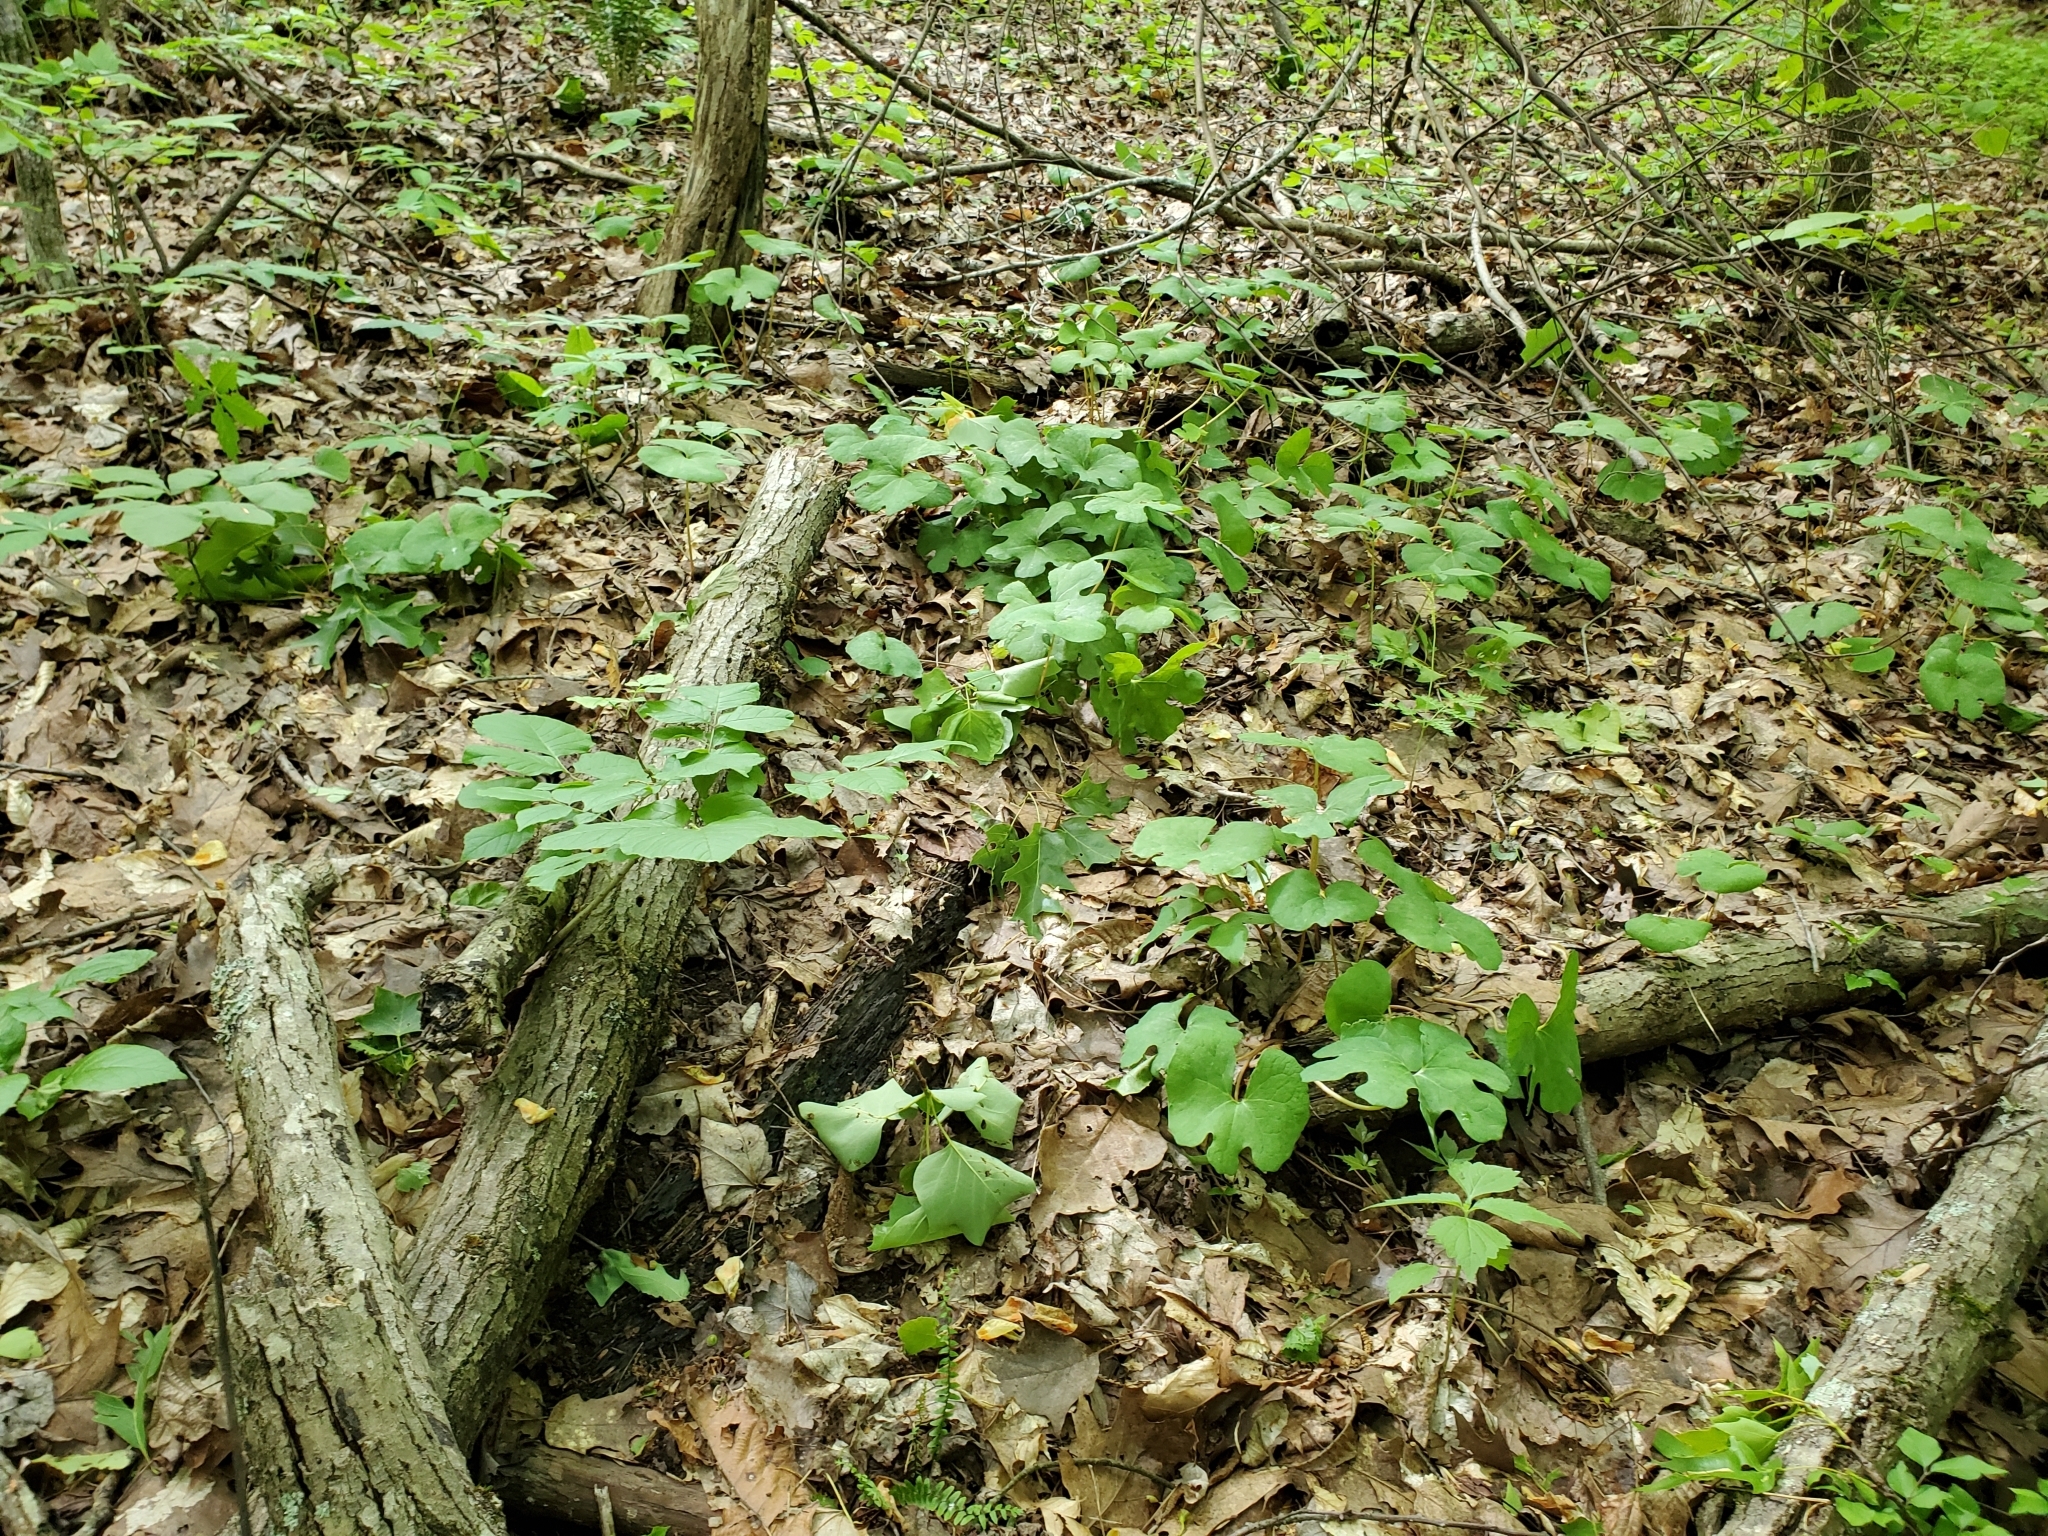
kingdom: Plantae
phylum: Tracheophyta
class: Magnoliopsida
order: Ranunculales
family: Papaveraceae
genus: Sanguinaria
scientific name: Sanguinaria canadensis
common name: Bloodroot
